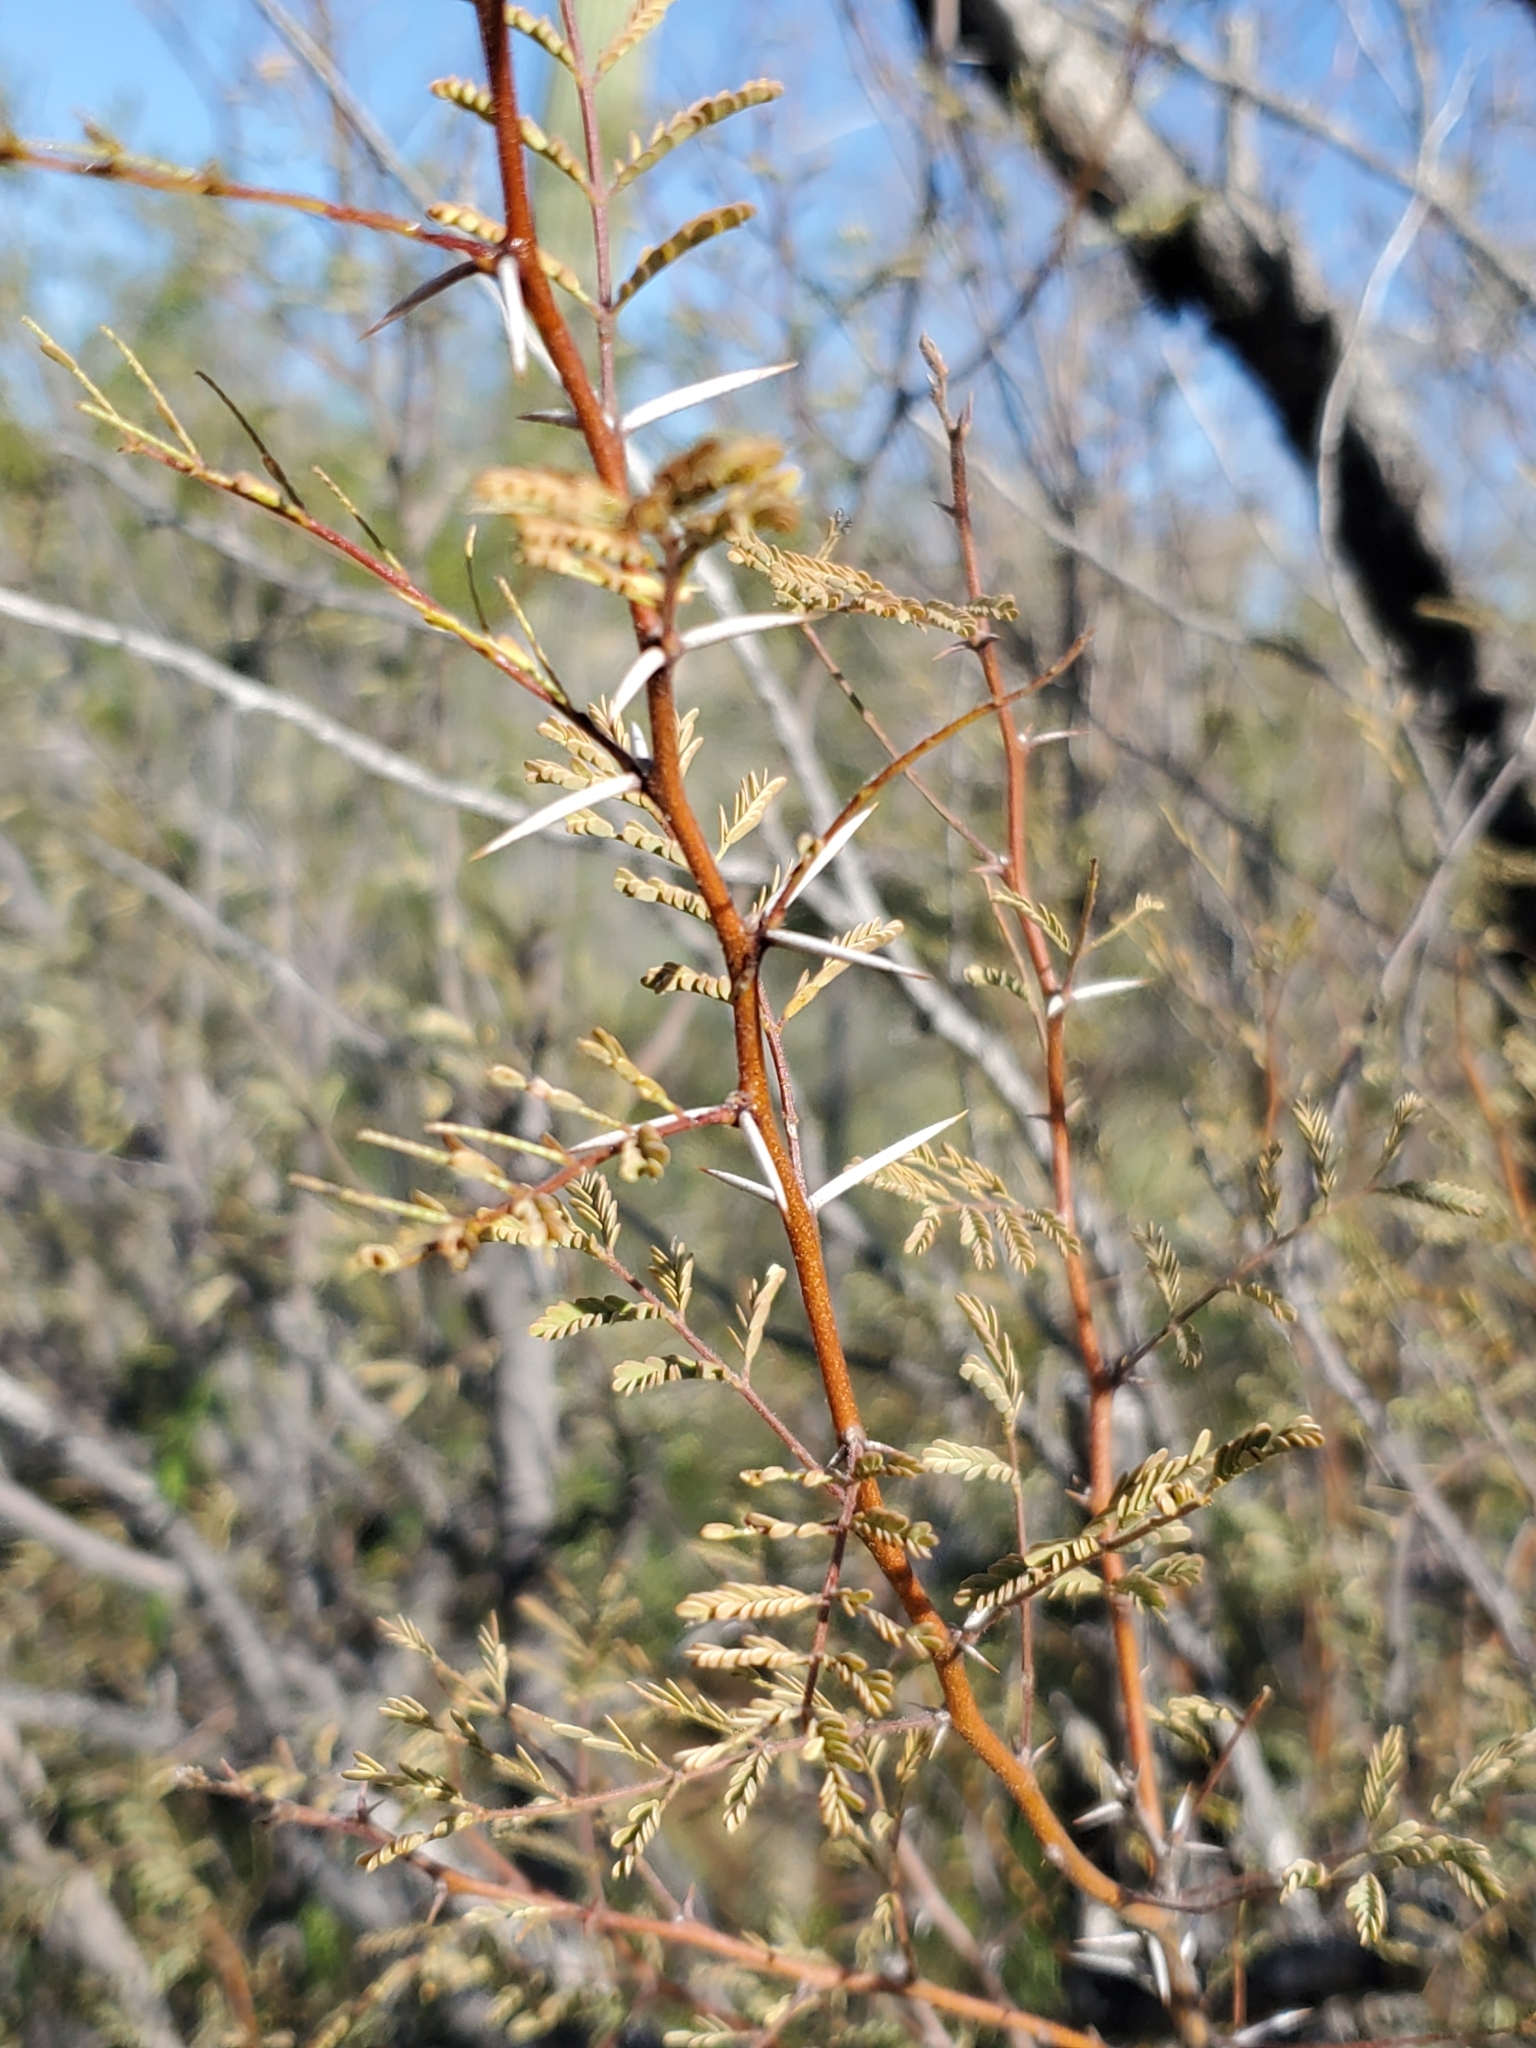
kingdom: Plantae
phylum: Tracheophyta
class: Magnoliopsida
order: Fabales
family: Fabaceae
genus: Vachellia
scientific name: Vachellia constricta
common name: Mescat acacia
